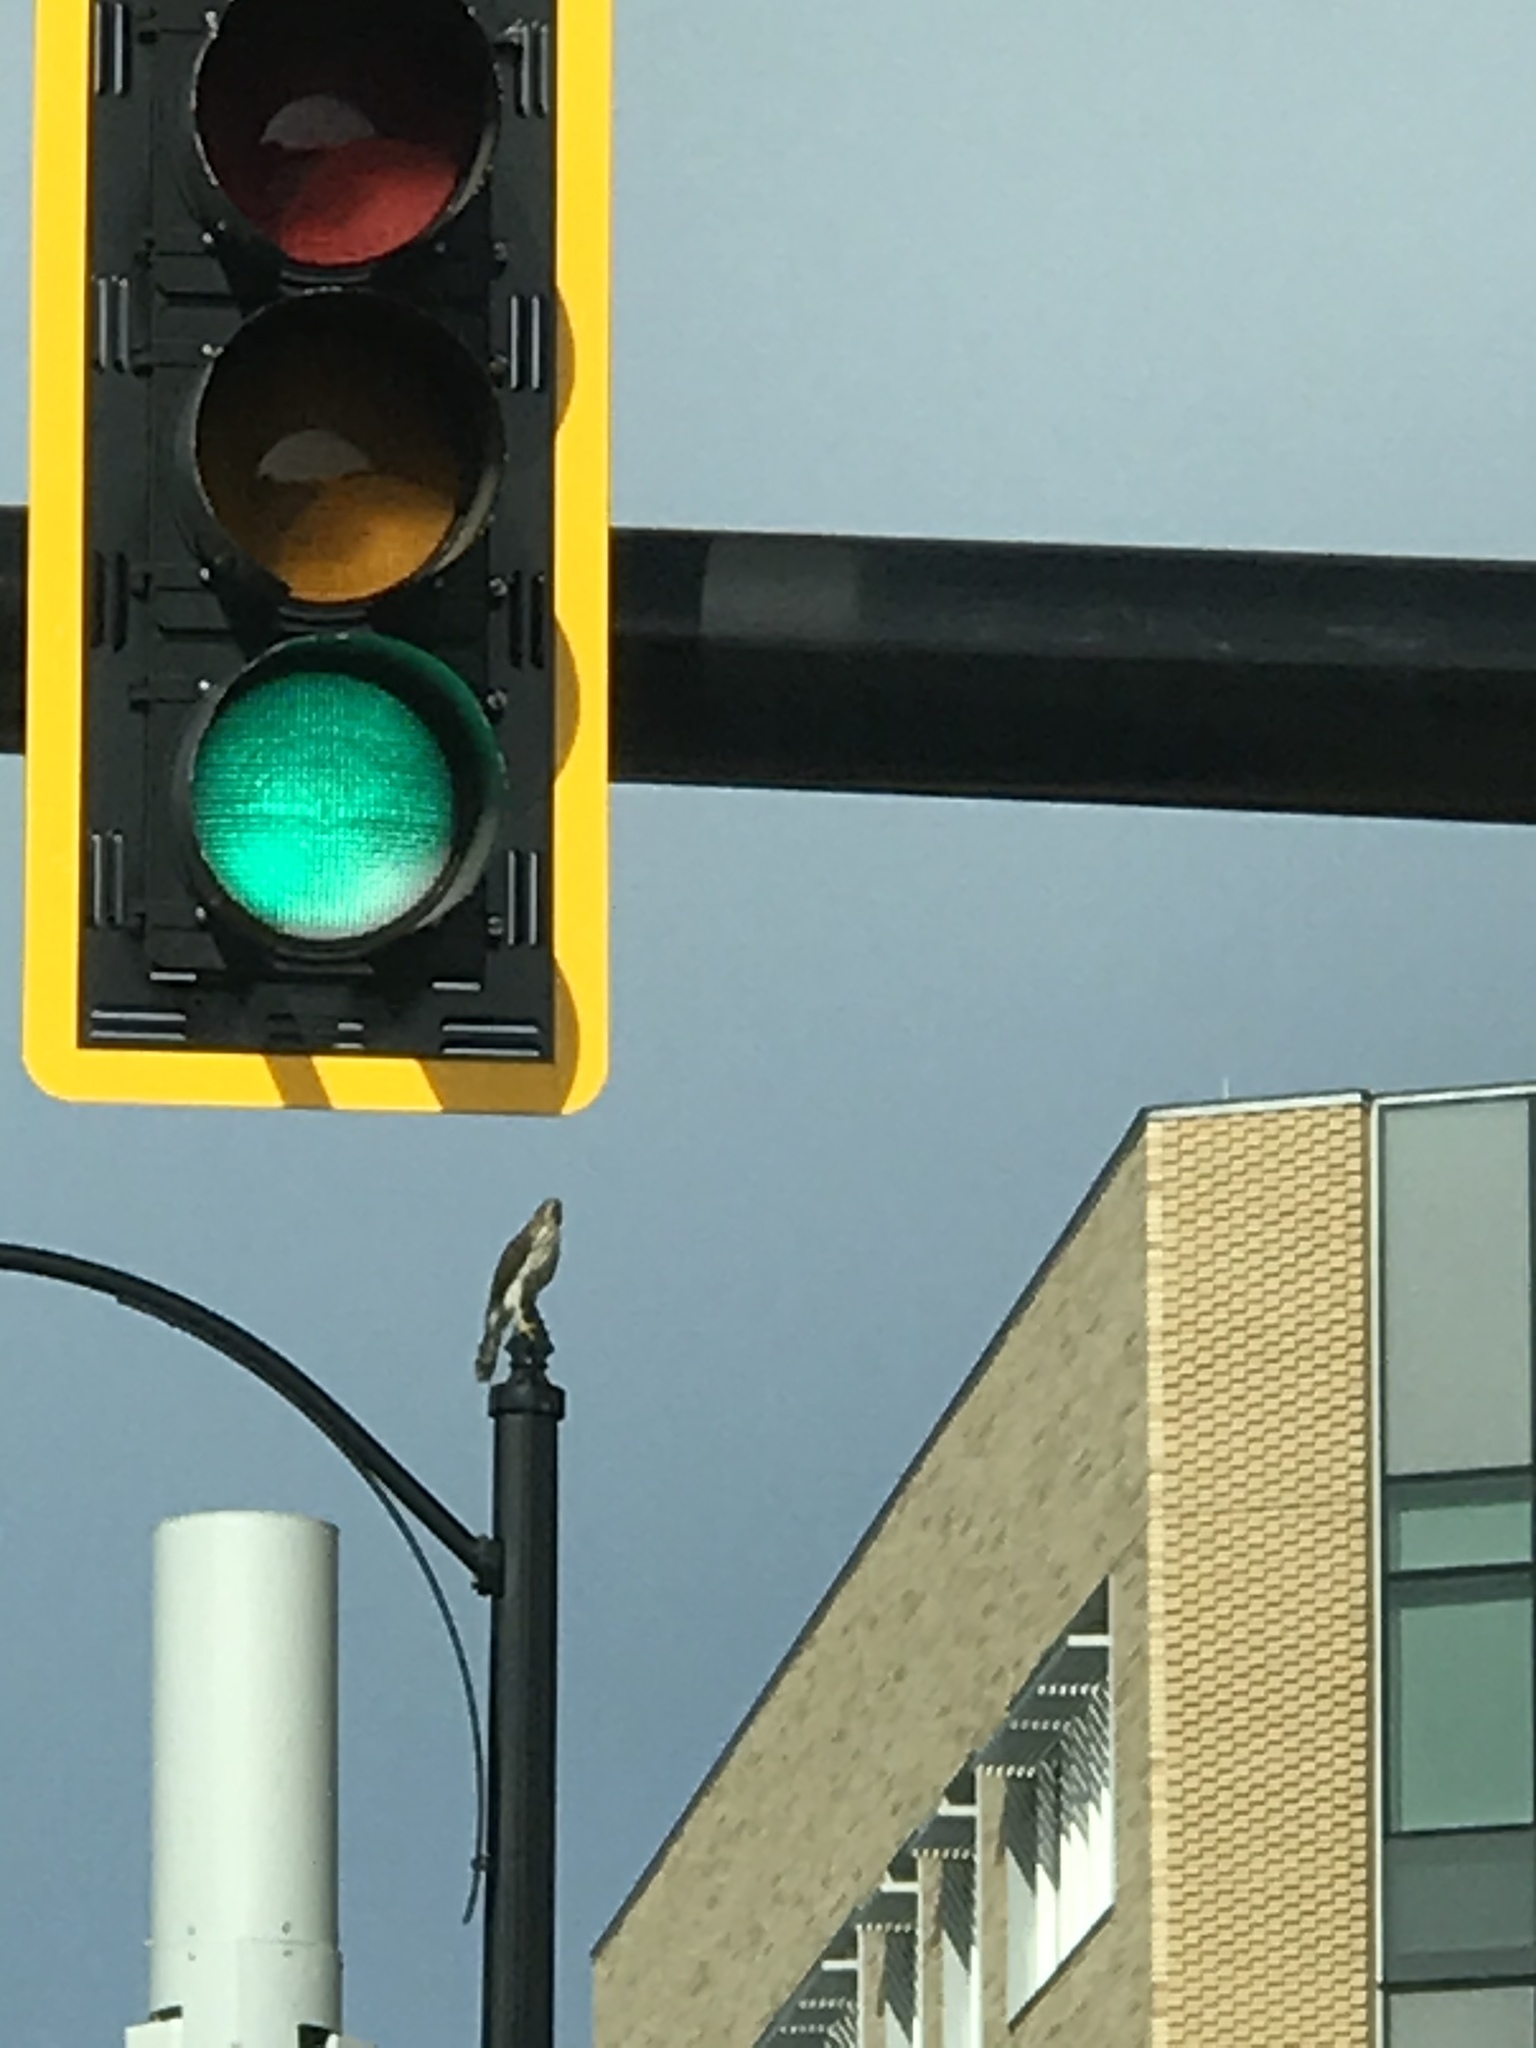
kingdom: Animalia
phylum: Chordata
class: Aves
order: Accipitriformes
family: Accipitridae
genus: Accipiter
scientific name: Accipiter cooperii
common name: Cooper's hawk
